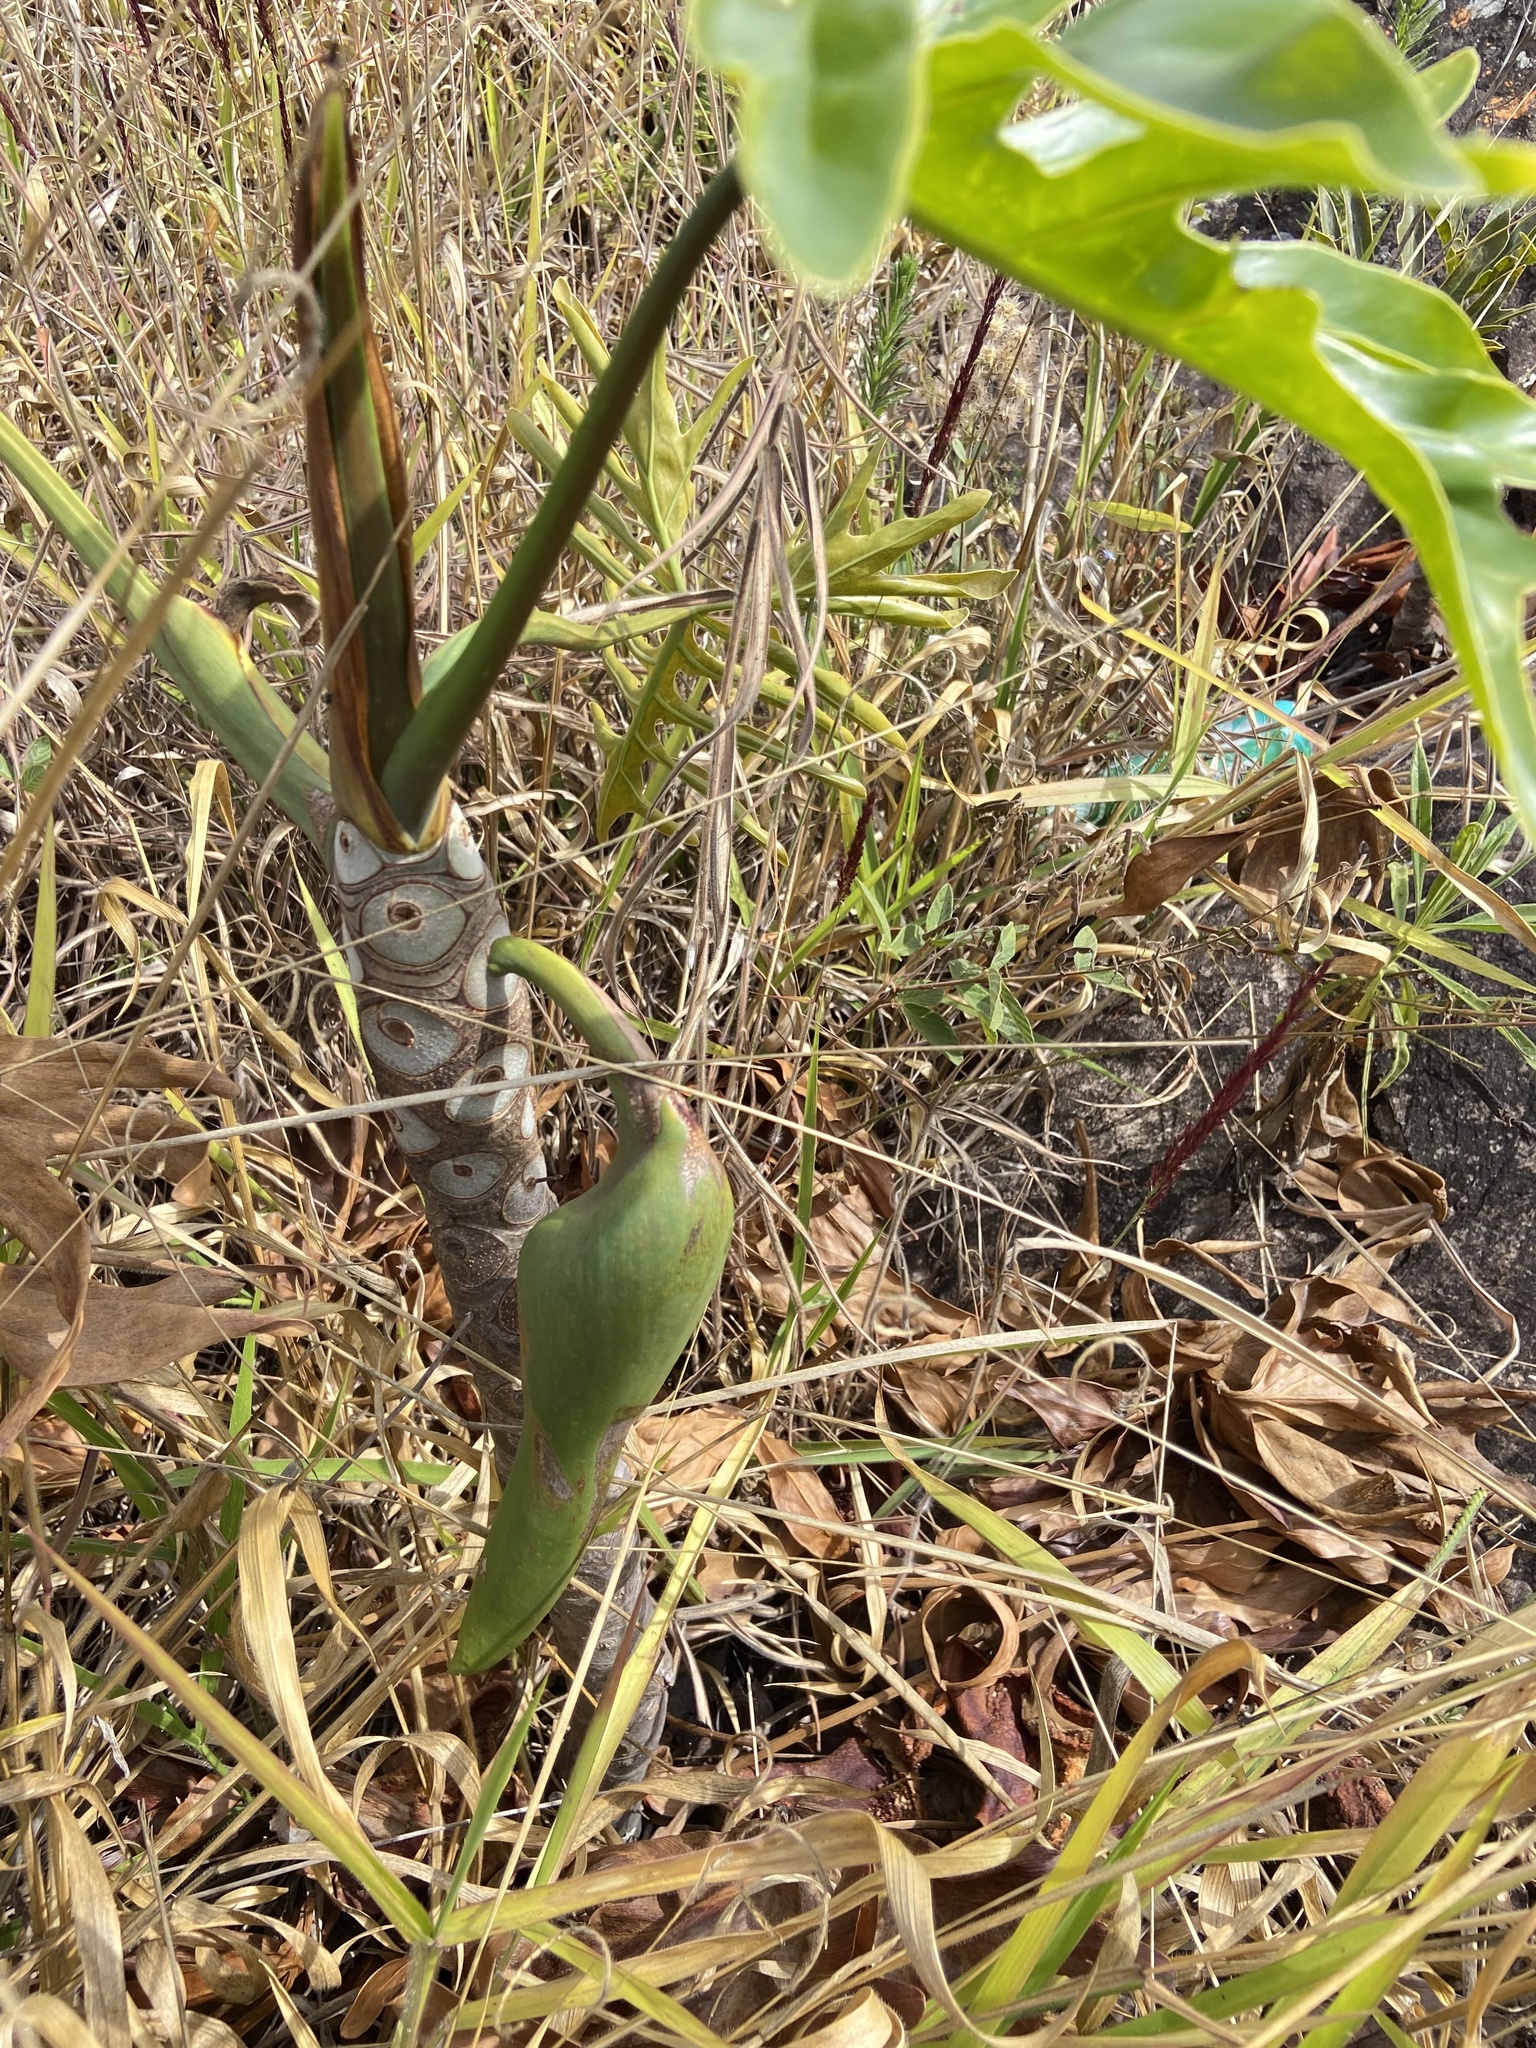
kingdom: Plantae
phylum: Tracheophyta
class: Liliopsida
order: Alismatales
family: Araceae
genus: Thaumatophyllum
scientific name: Thaumatophyllum adamantinum
